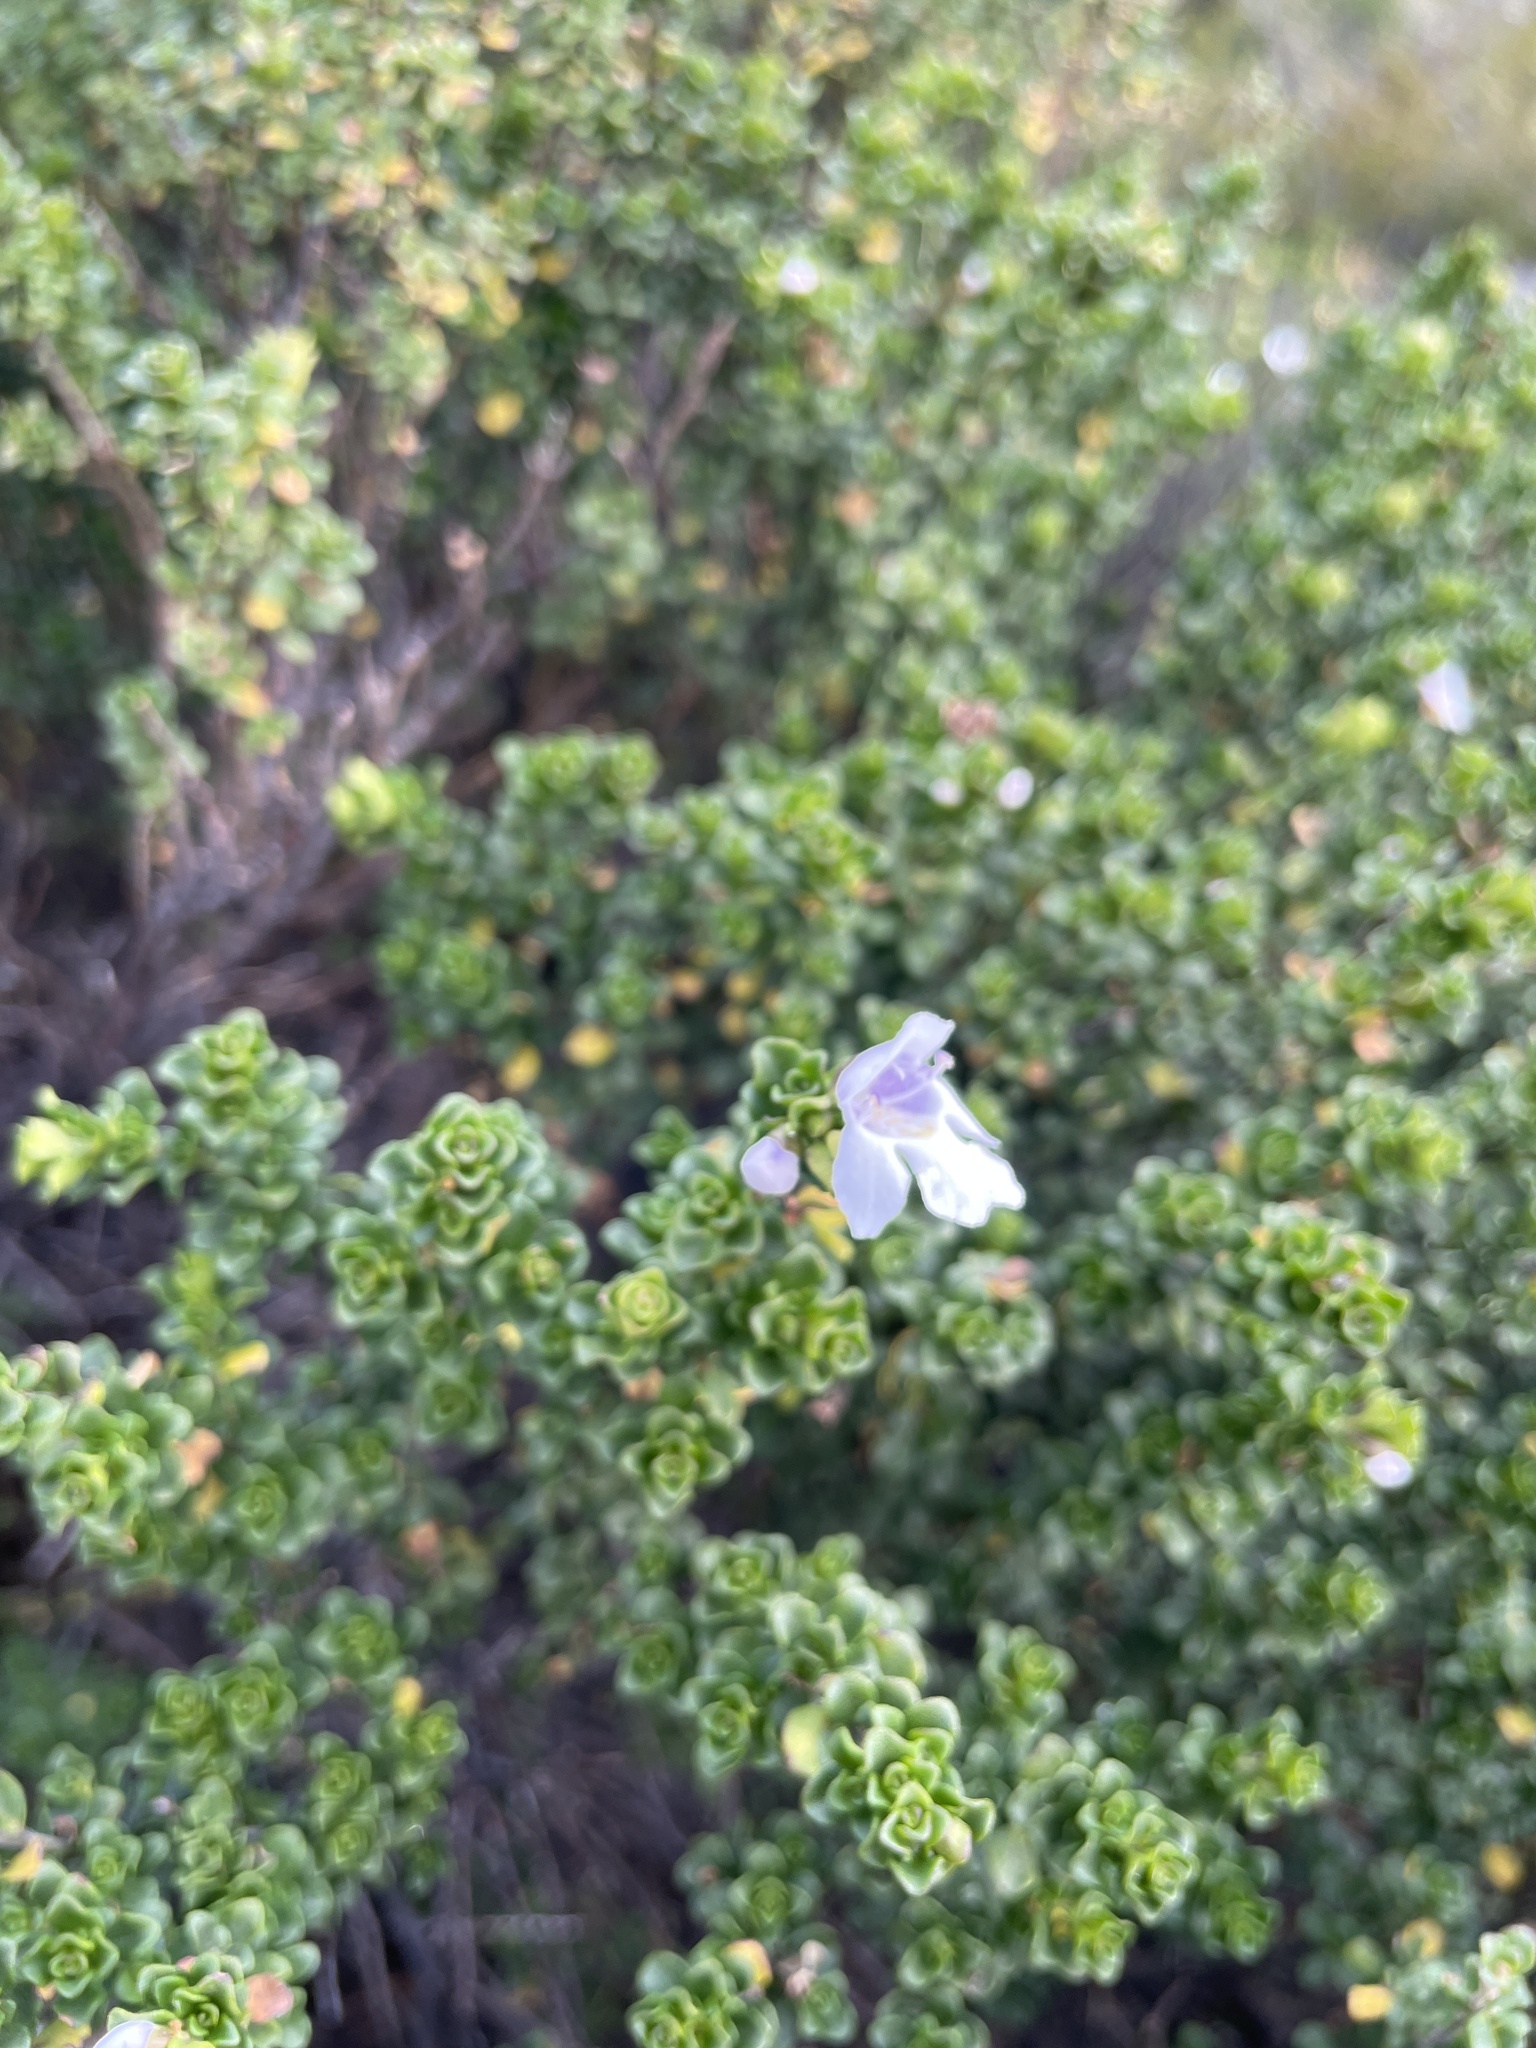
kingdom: Plantae
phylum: Tracheophyta
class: Magnoliopsida
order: Lamiales
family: Lamiaceae
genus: Prostanthera
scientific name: Prostanthera cuneata
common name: Alpine mintbush
